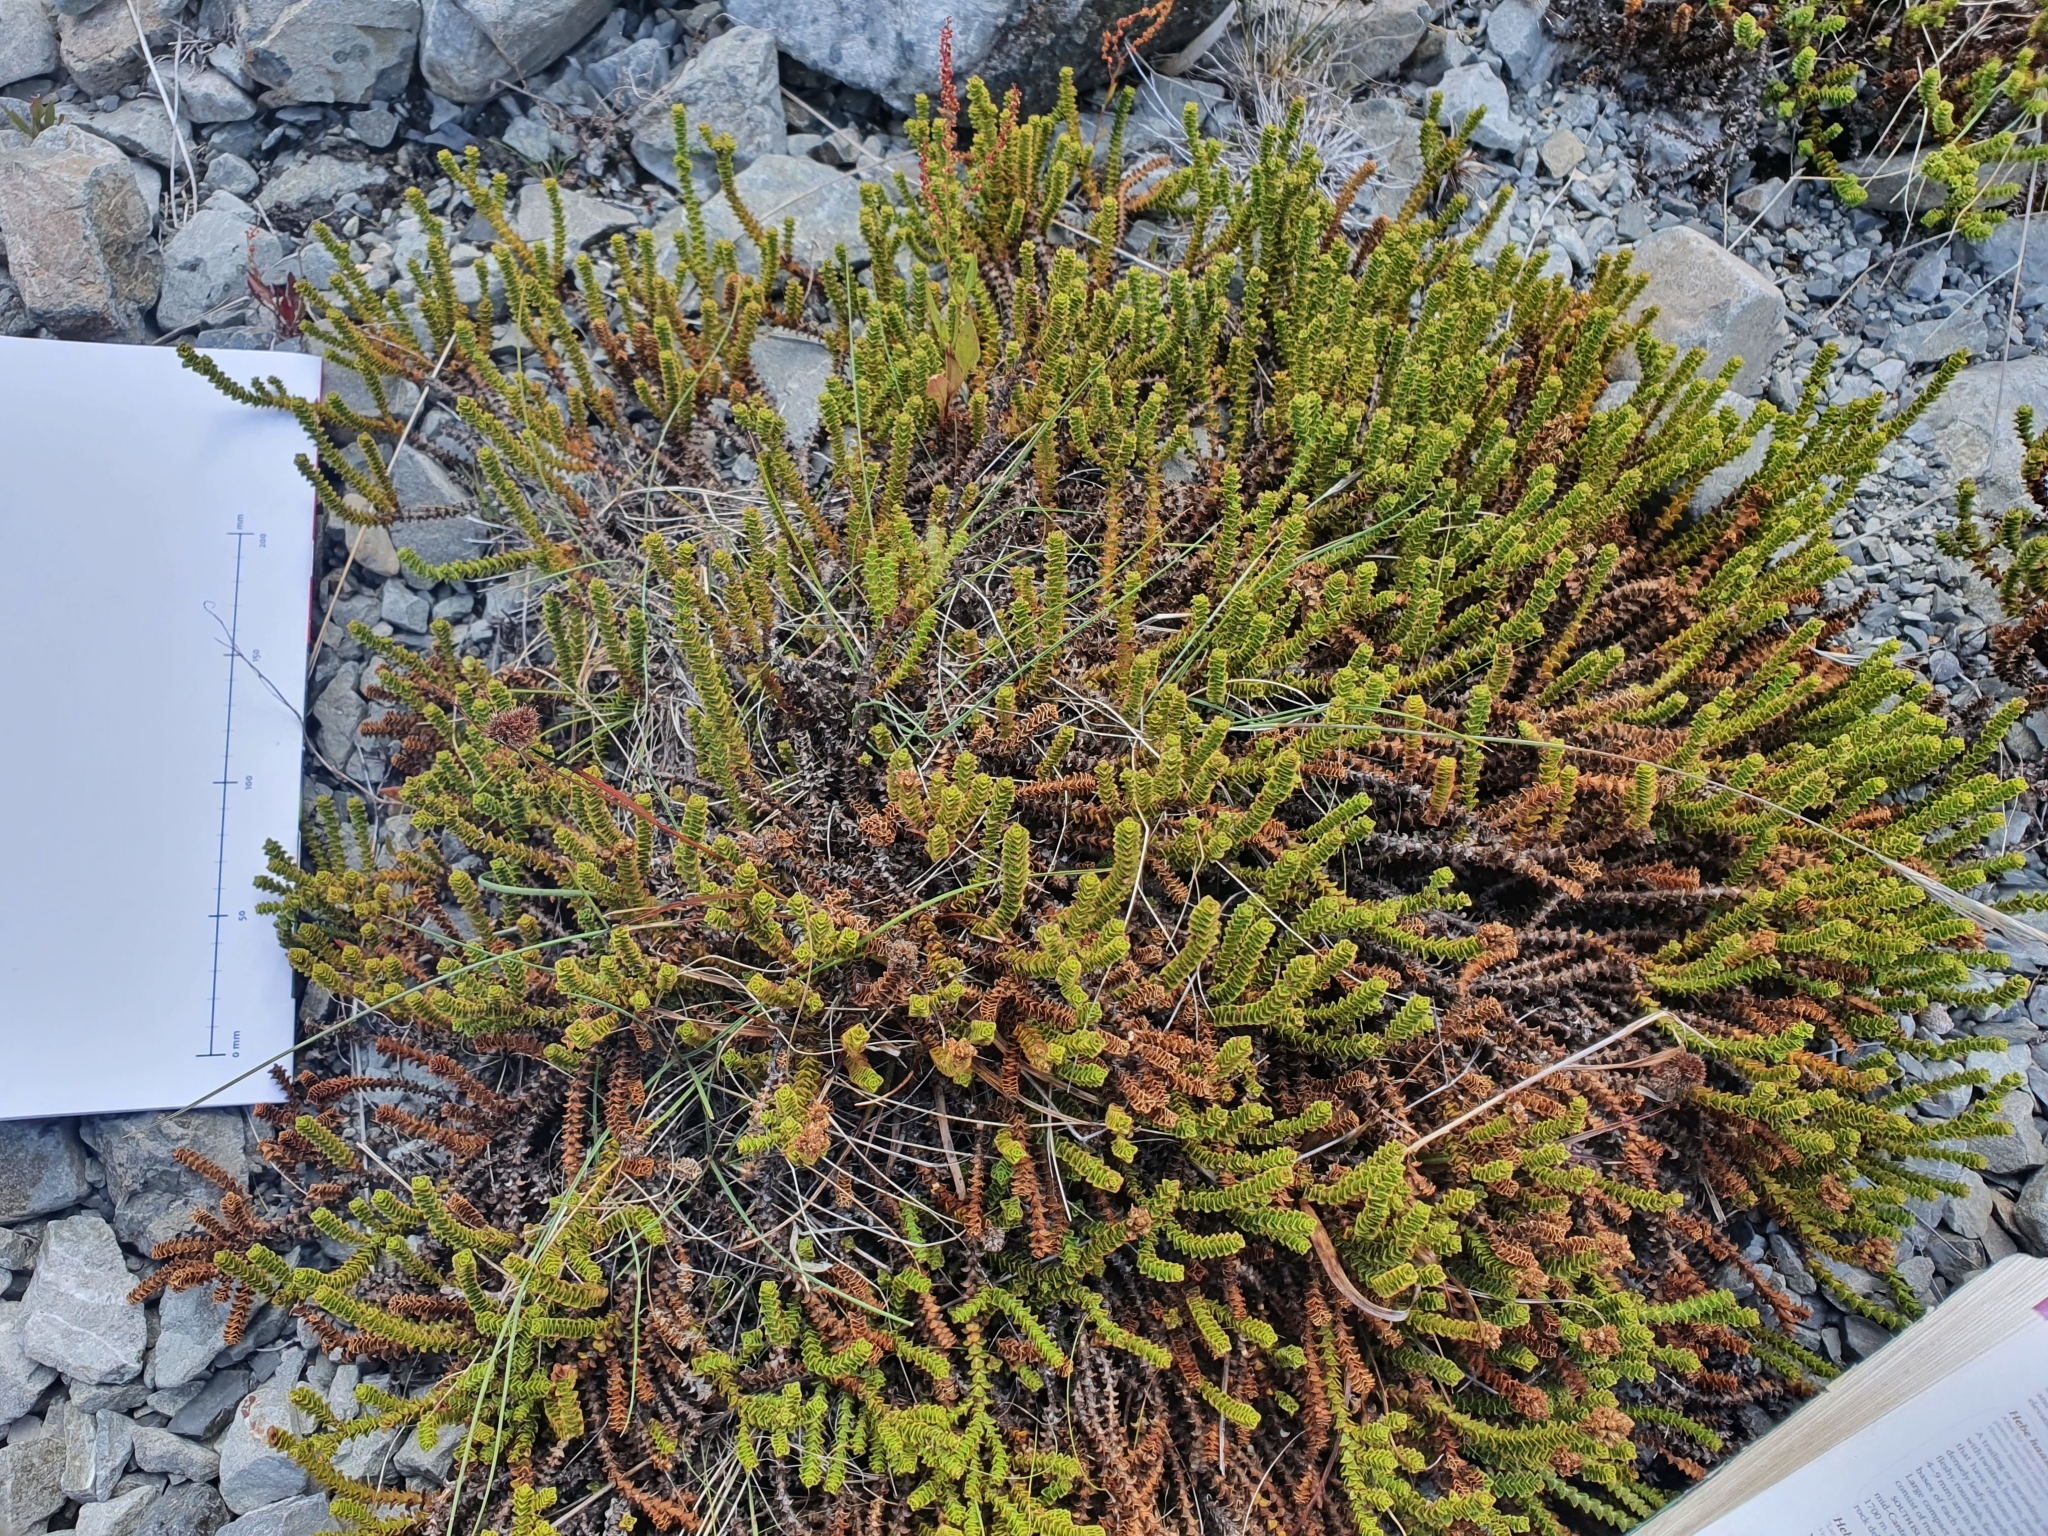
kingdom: Plantae
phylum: Tracheophyta
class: Magnoliopsida
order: Lamiales
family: Plantaginaceae
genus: Veronica
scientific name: Veronica epacridea
